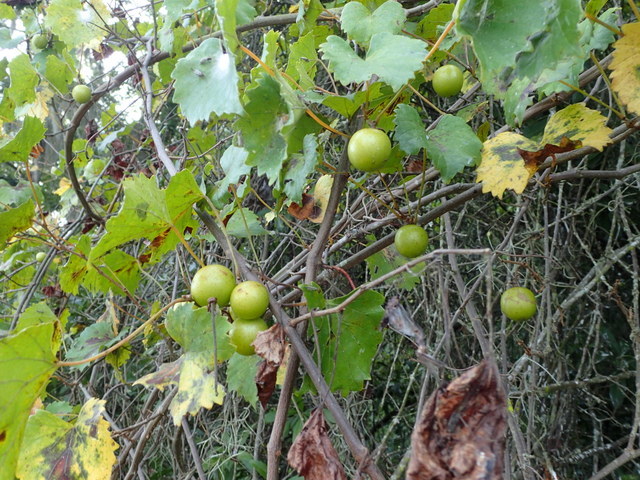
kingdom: Plantae
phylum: Tracheophyta
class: Magnoliopsida
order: Vitales
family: Vitaceae
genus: Vitis
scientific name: Vitis rotundifolia
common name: Muscadine grape
